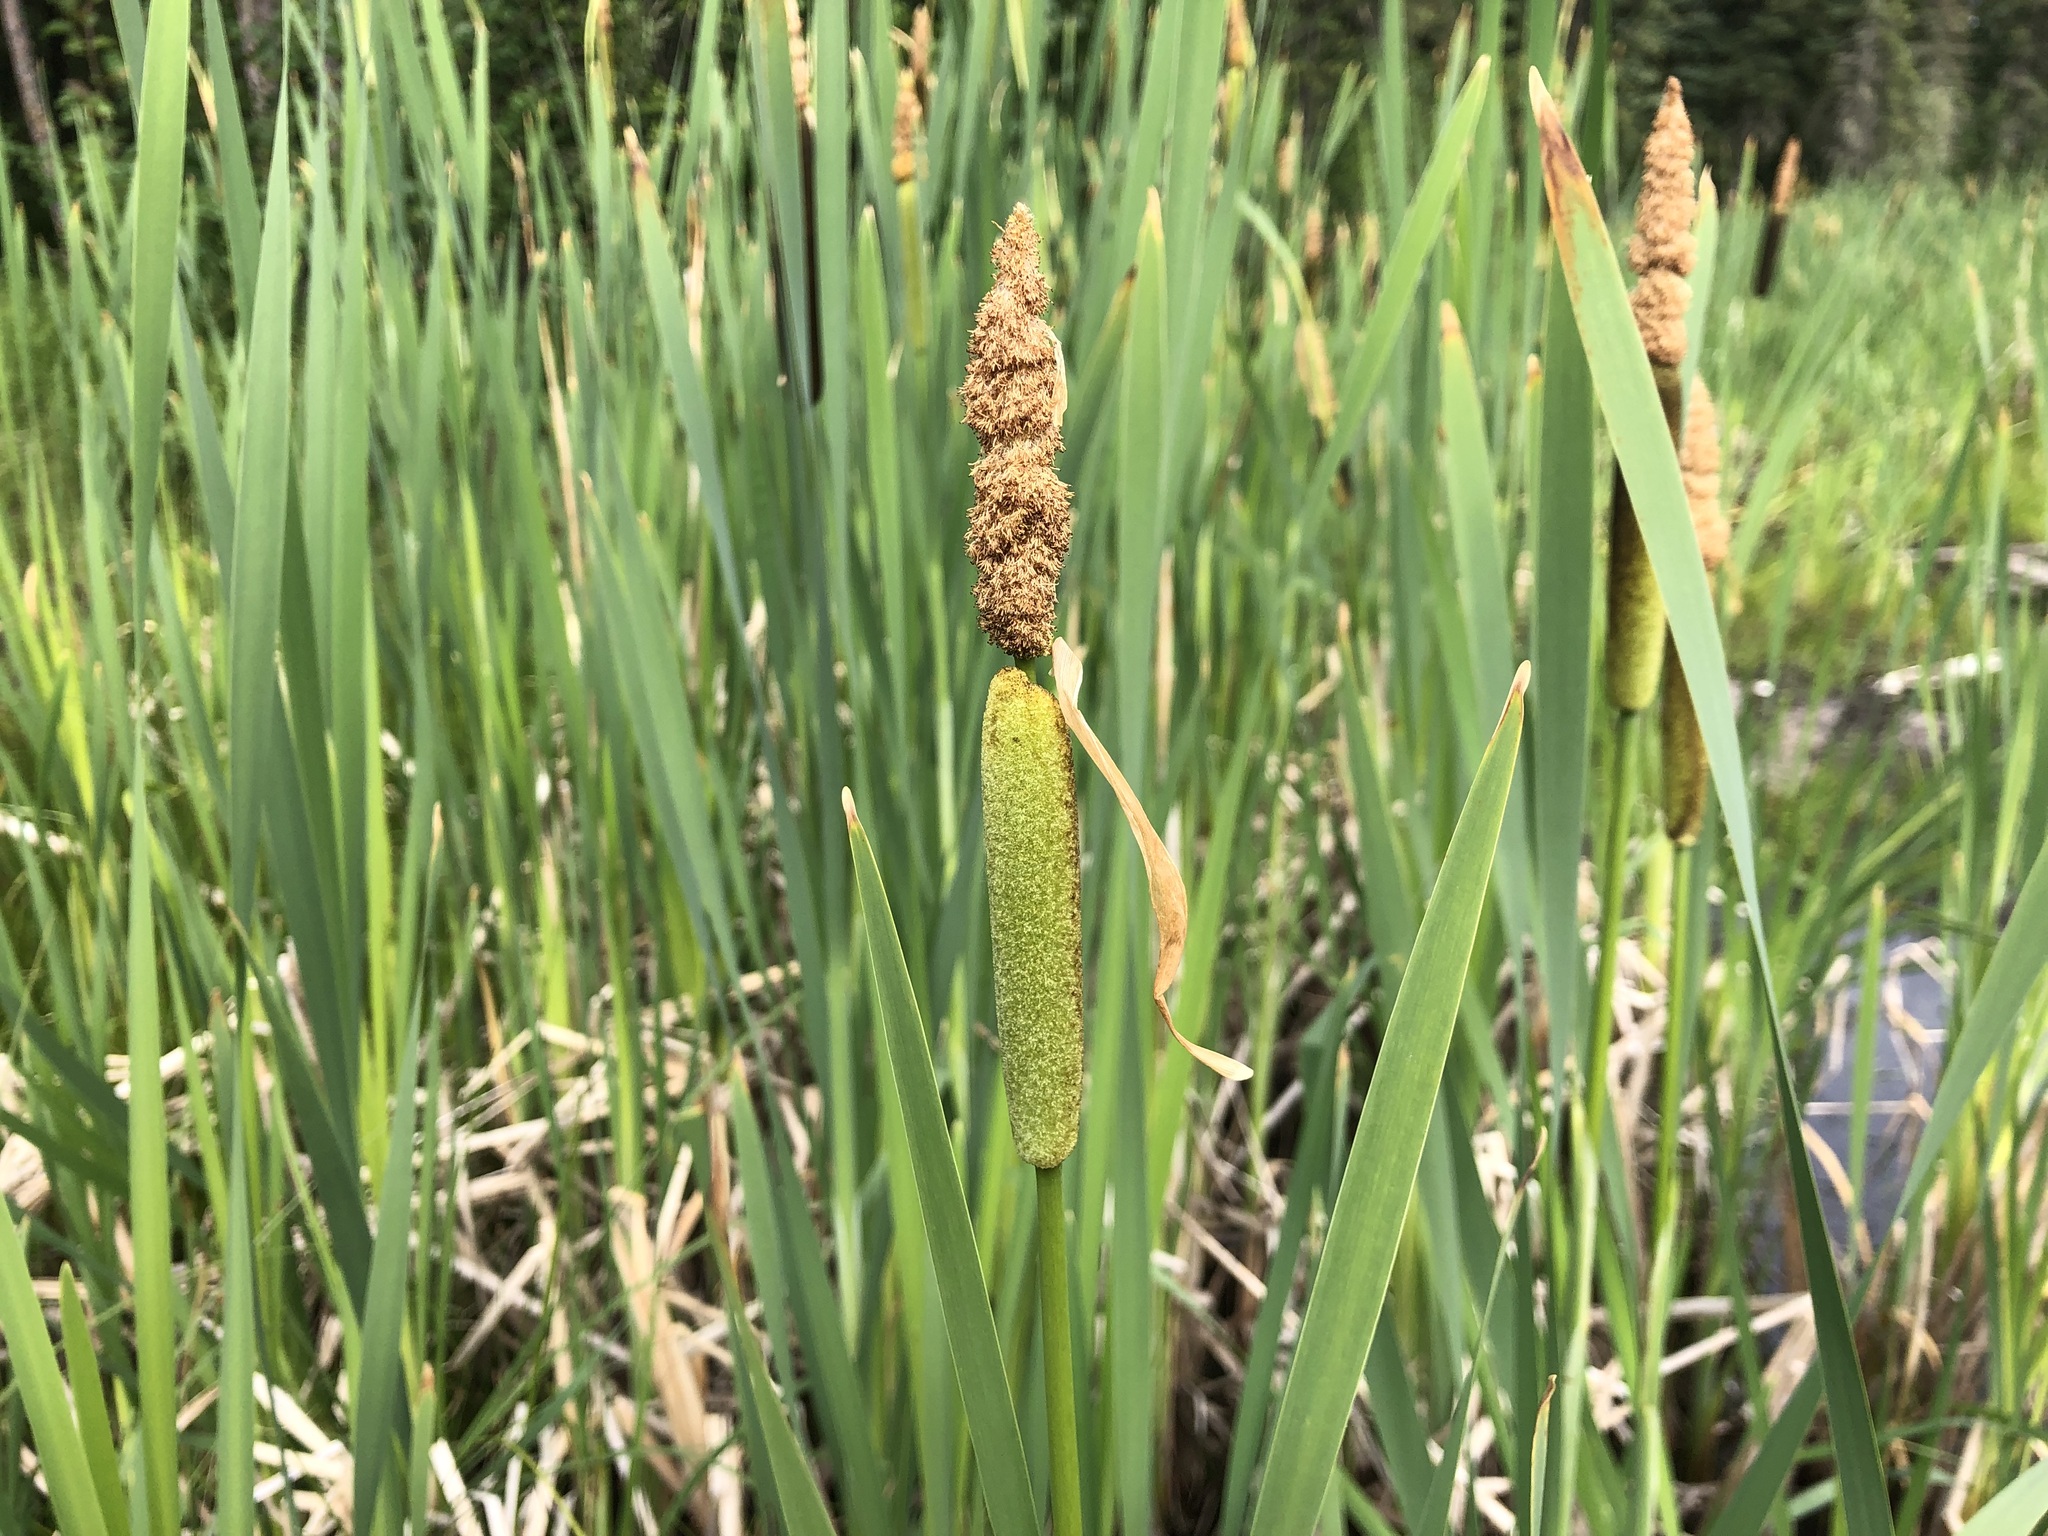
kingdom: Plantae
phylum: Tracheophyta
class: Liliopsida
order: Poales
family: Typhaceae
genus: Typha
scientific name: Typha latifolia
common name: Broadleaf cattail
